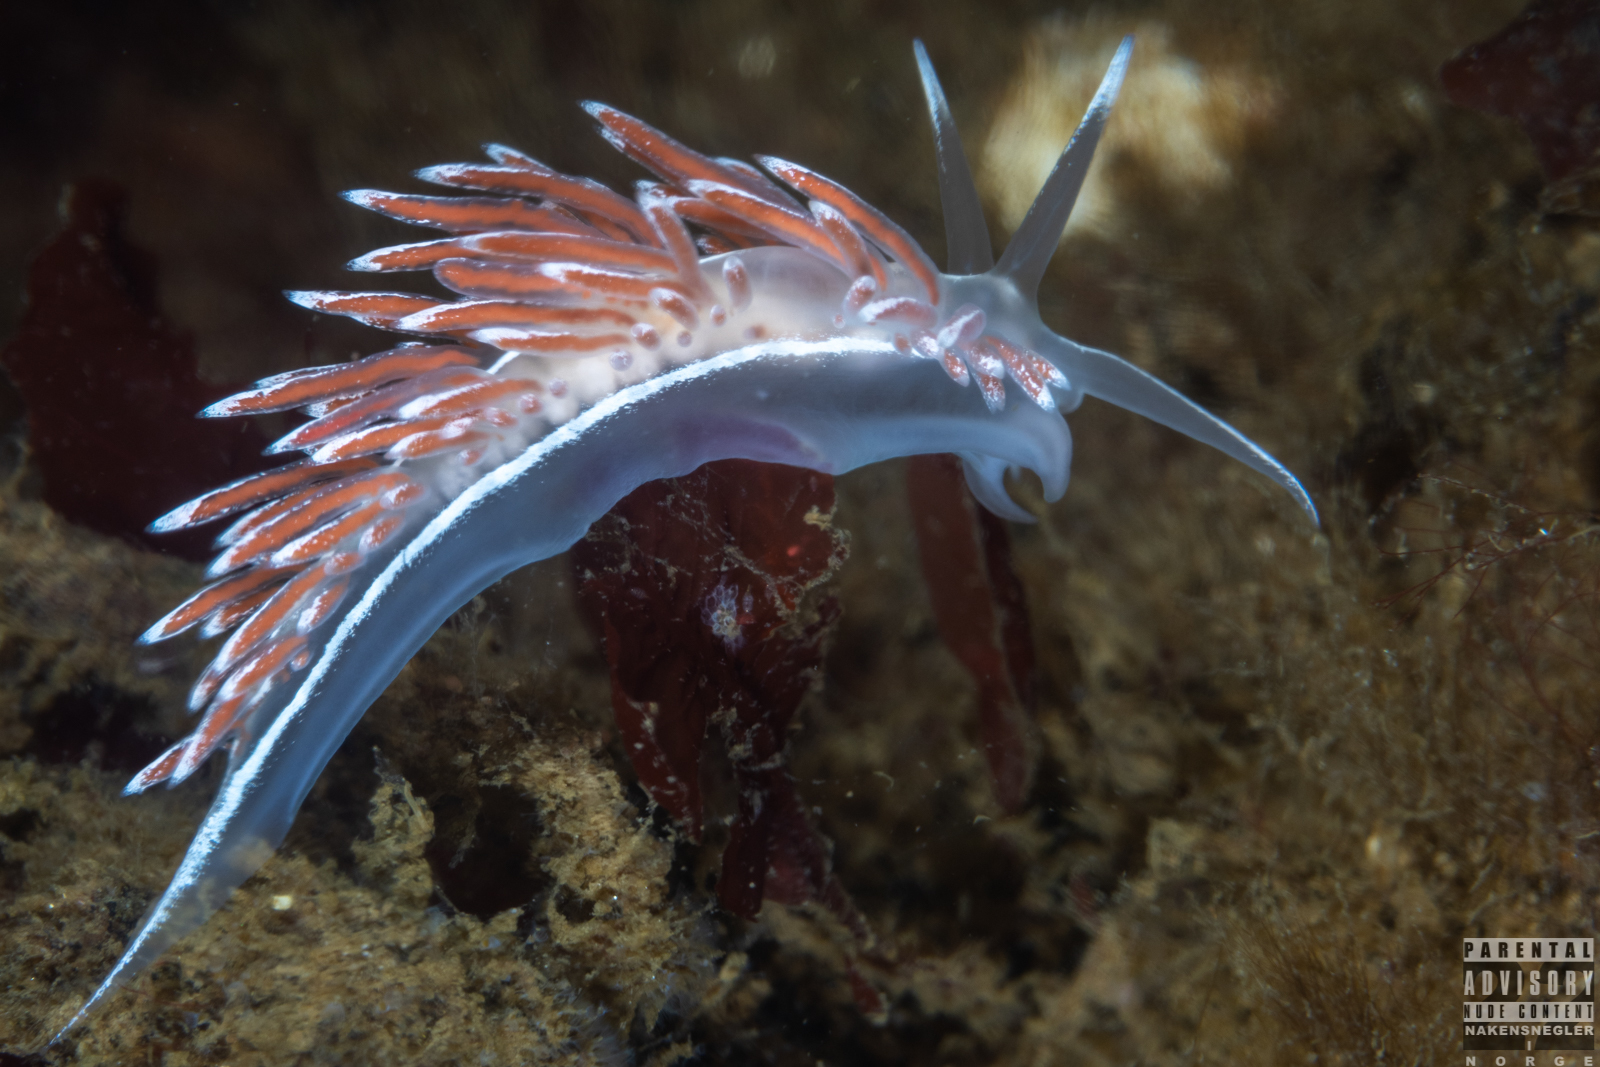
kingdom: Animalia
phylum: Mollusca
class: Gastropoda
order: Nudibranchia
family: Coryphellidae
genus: Coryphella
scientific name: Coryphella lineata
